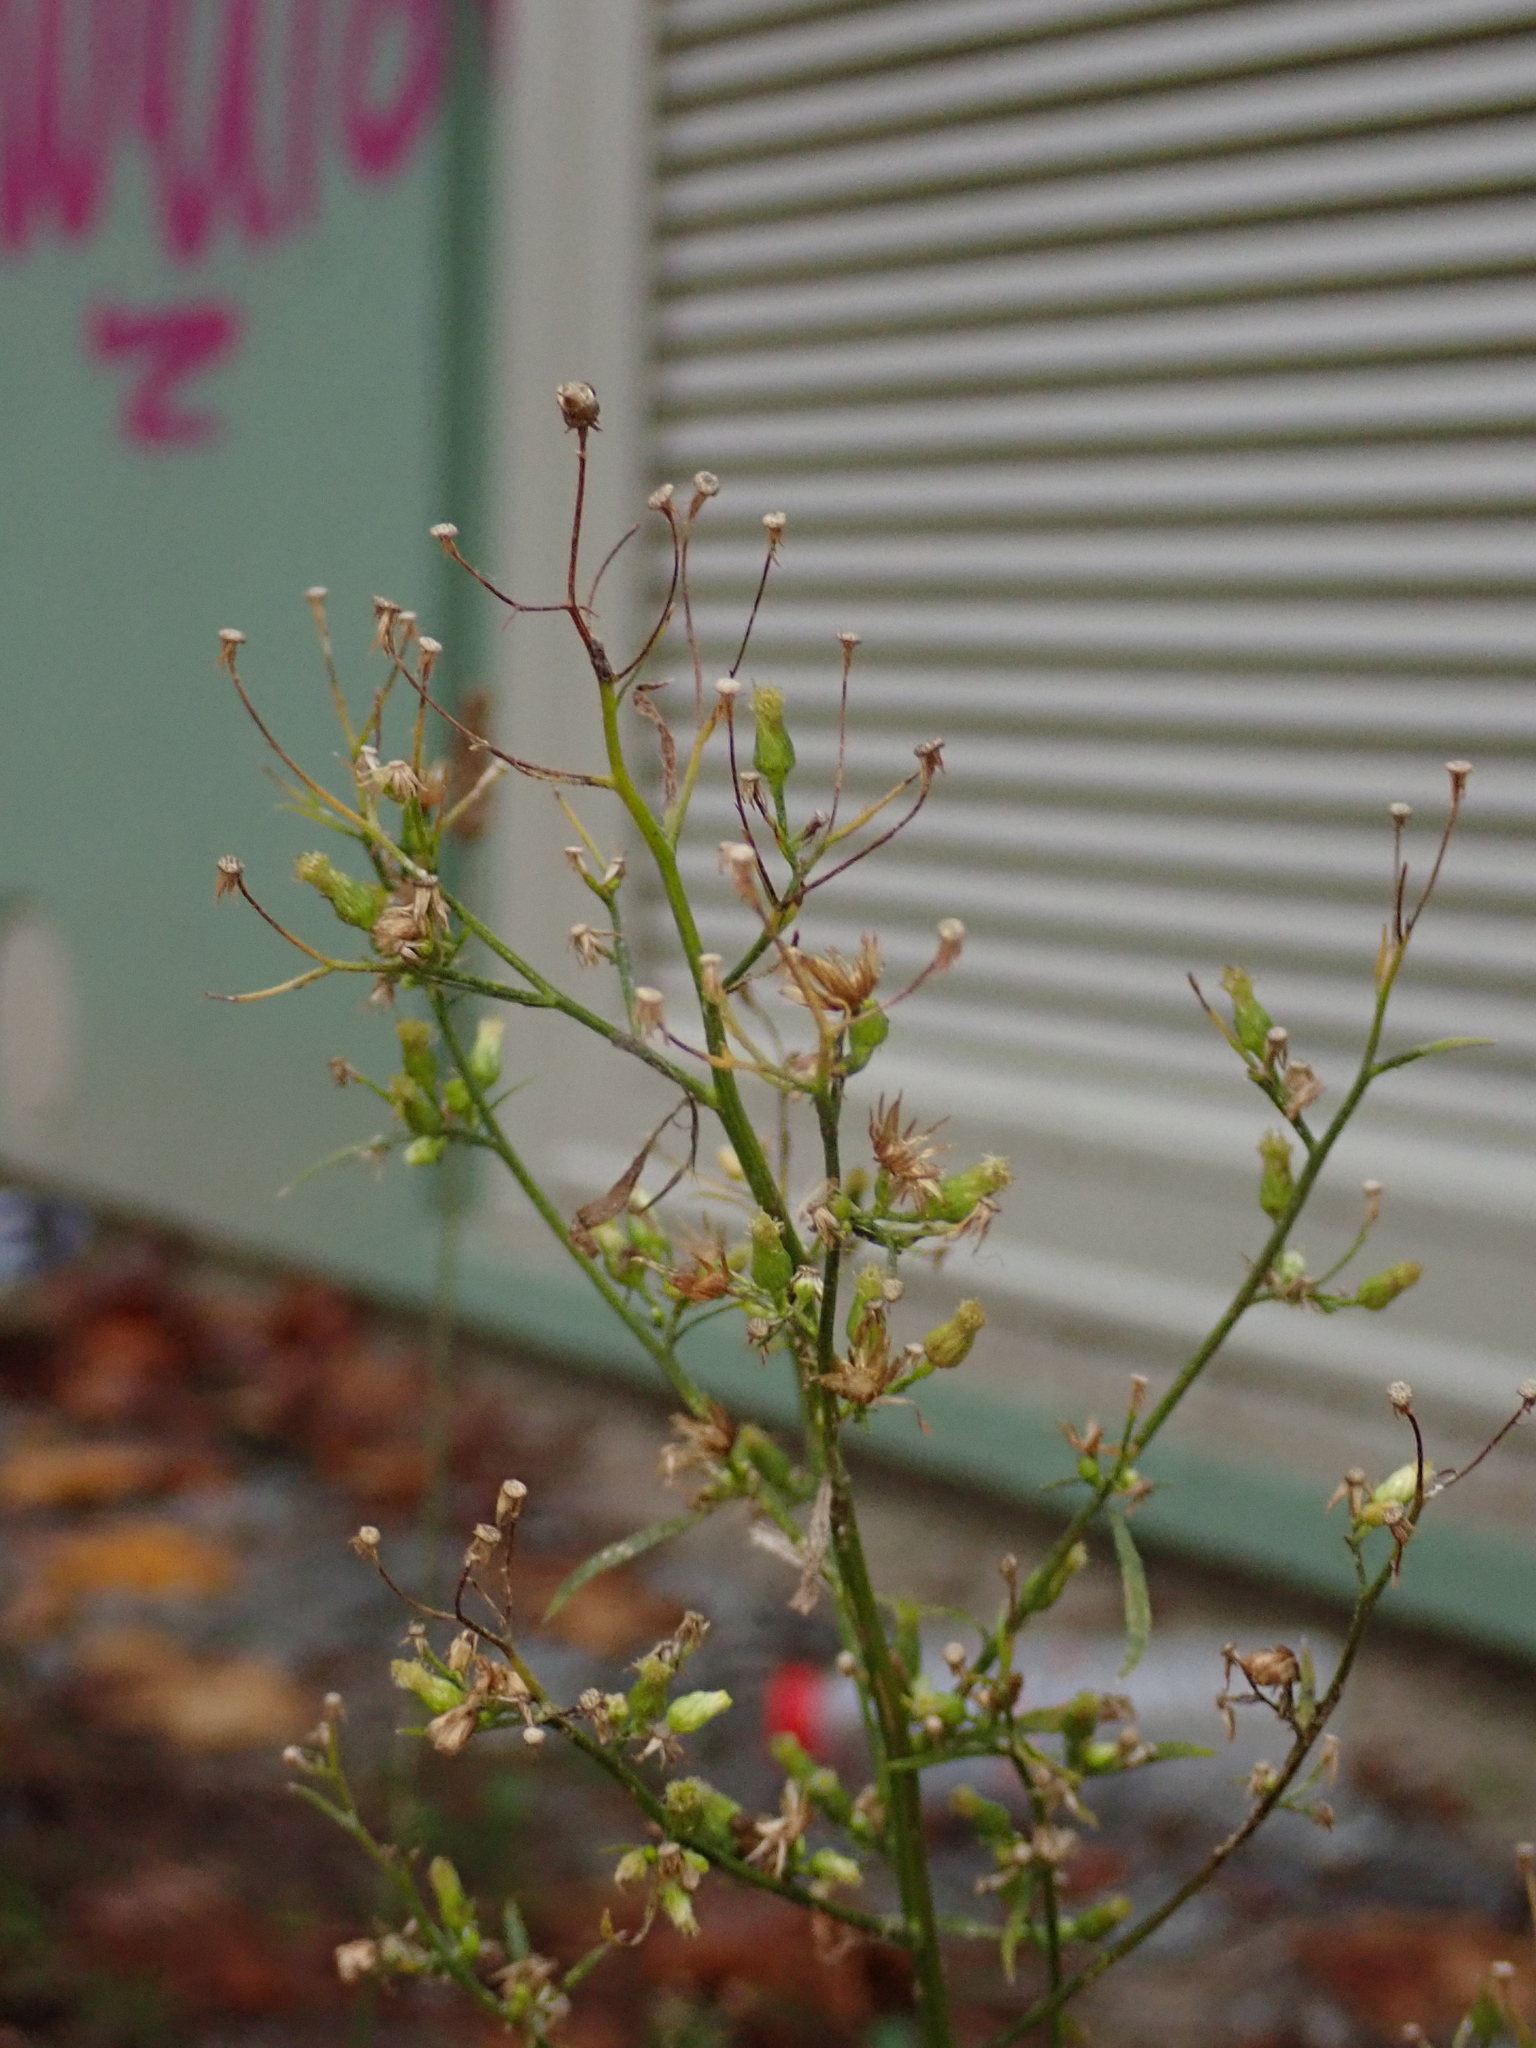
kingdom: Plantae
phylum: Tracheophyta
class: Magnoliopsida
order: Asterales
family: Asteraceae
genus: Erigeron
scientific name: Erigeron canadensis
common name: Canadian fleabane
